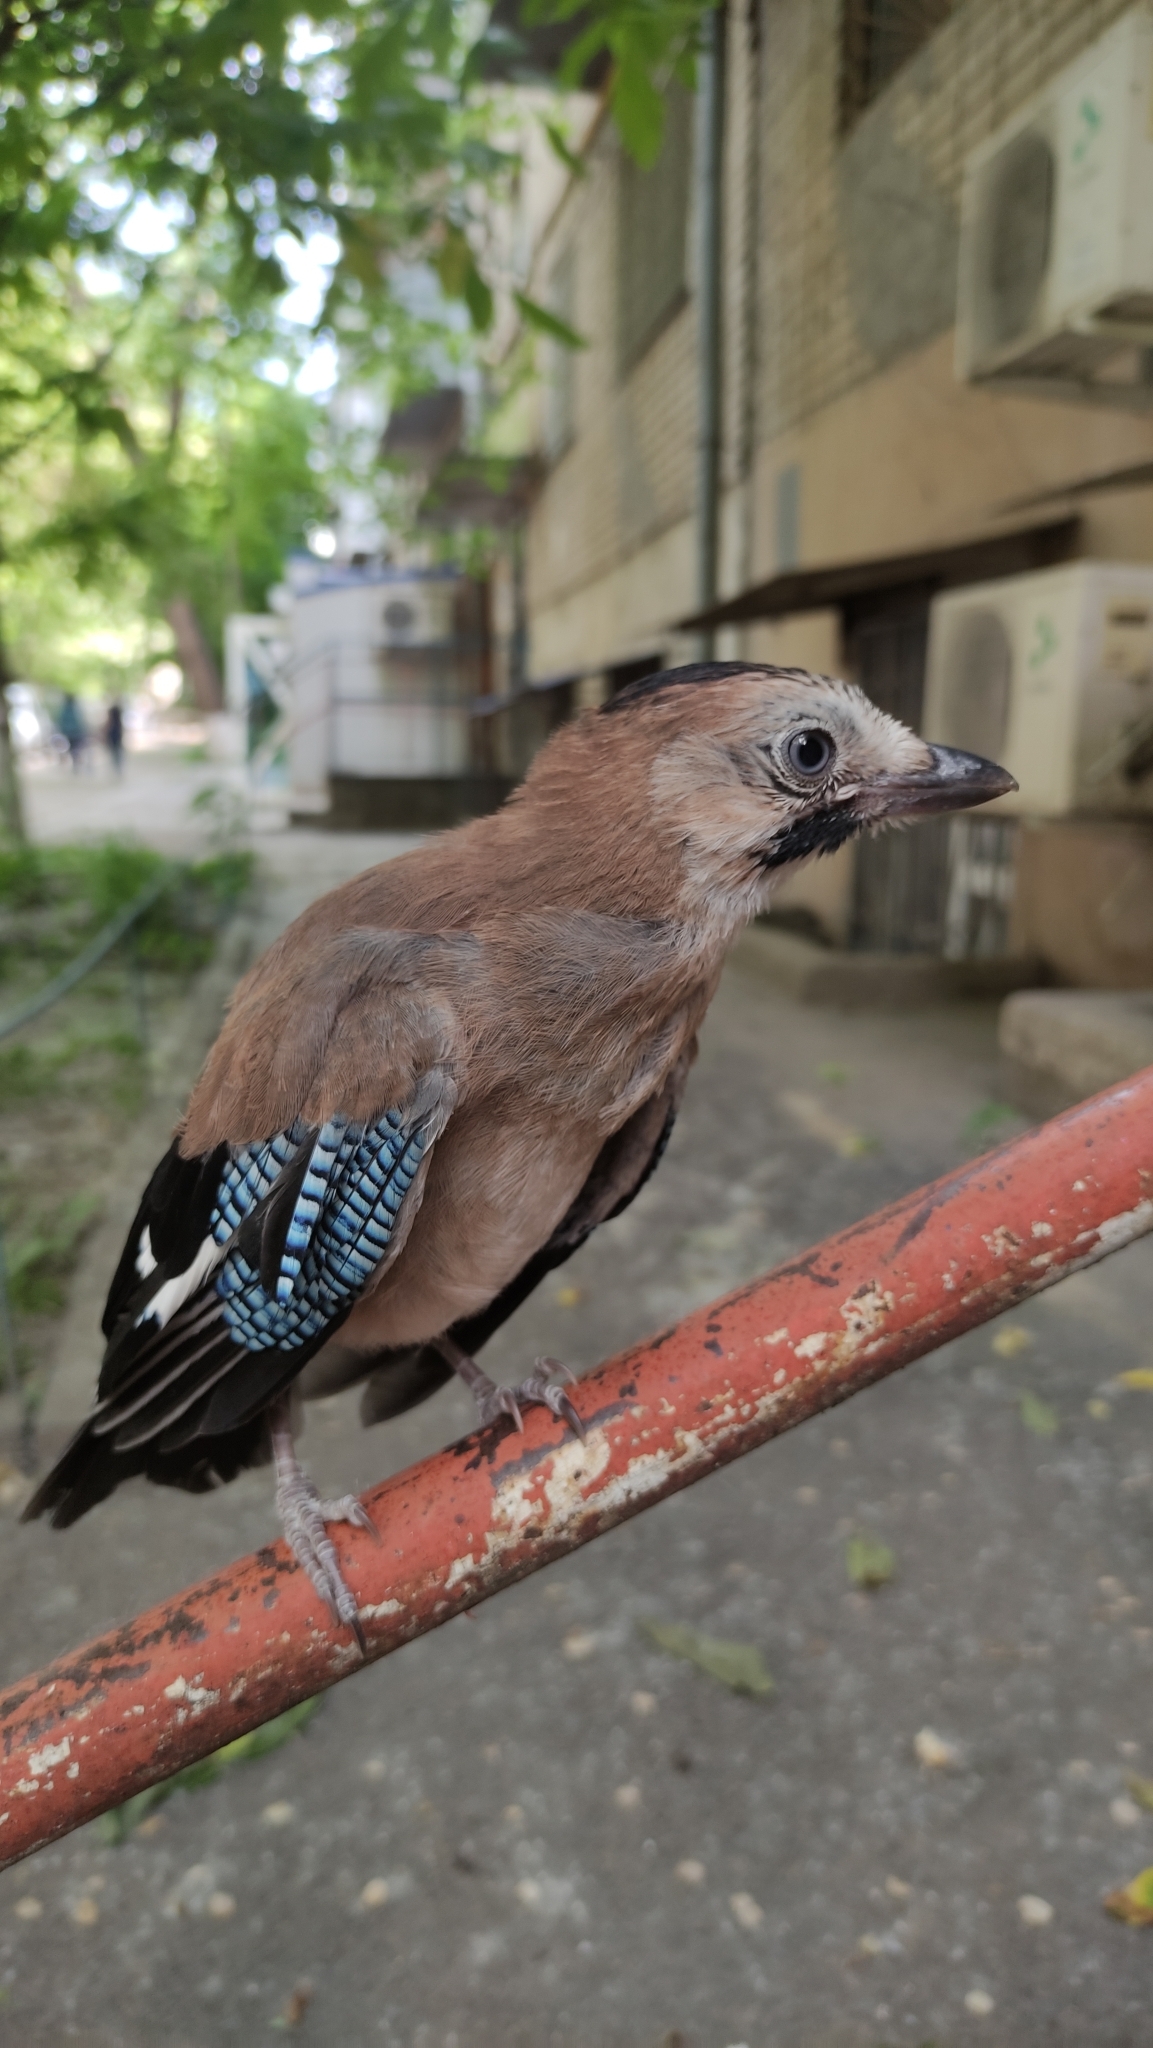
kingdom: Animalia
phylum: Chordata
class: Aves
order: Passeriformes
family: Corvidae
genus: Garrulus
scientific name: Garrulus glandarius
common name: Eurasian jay
